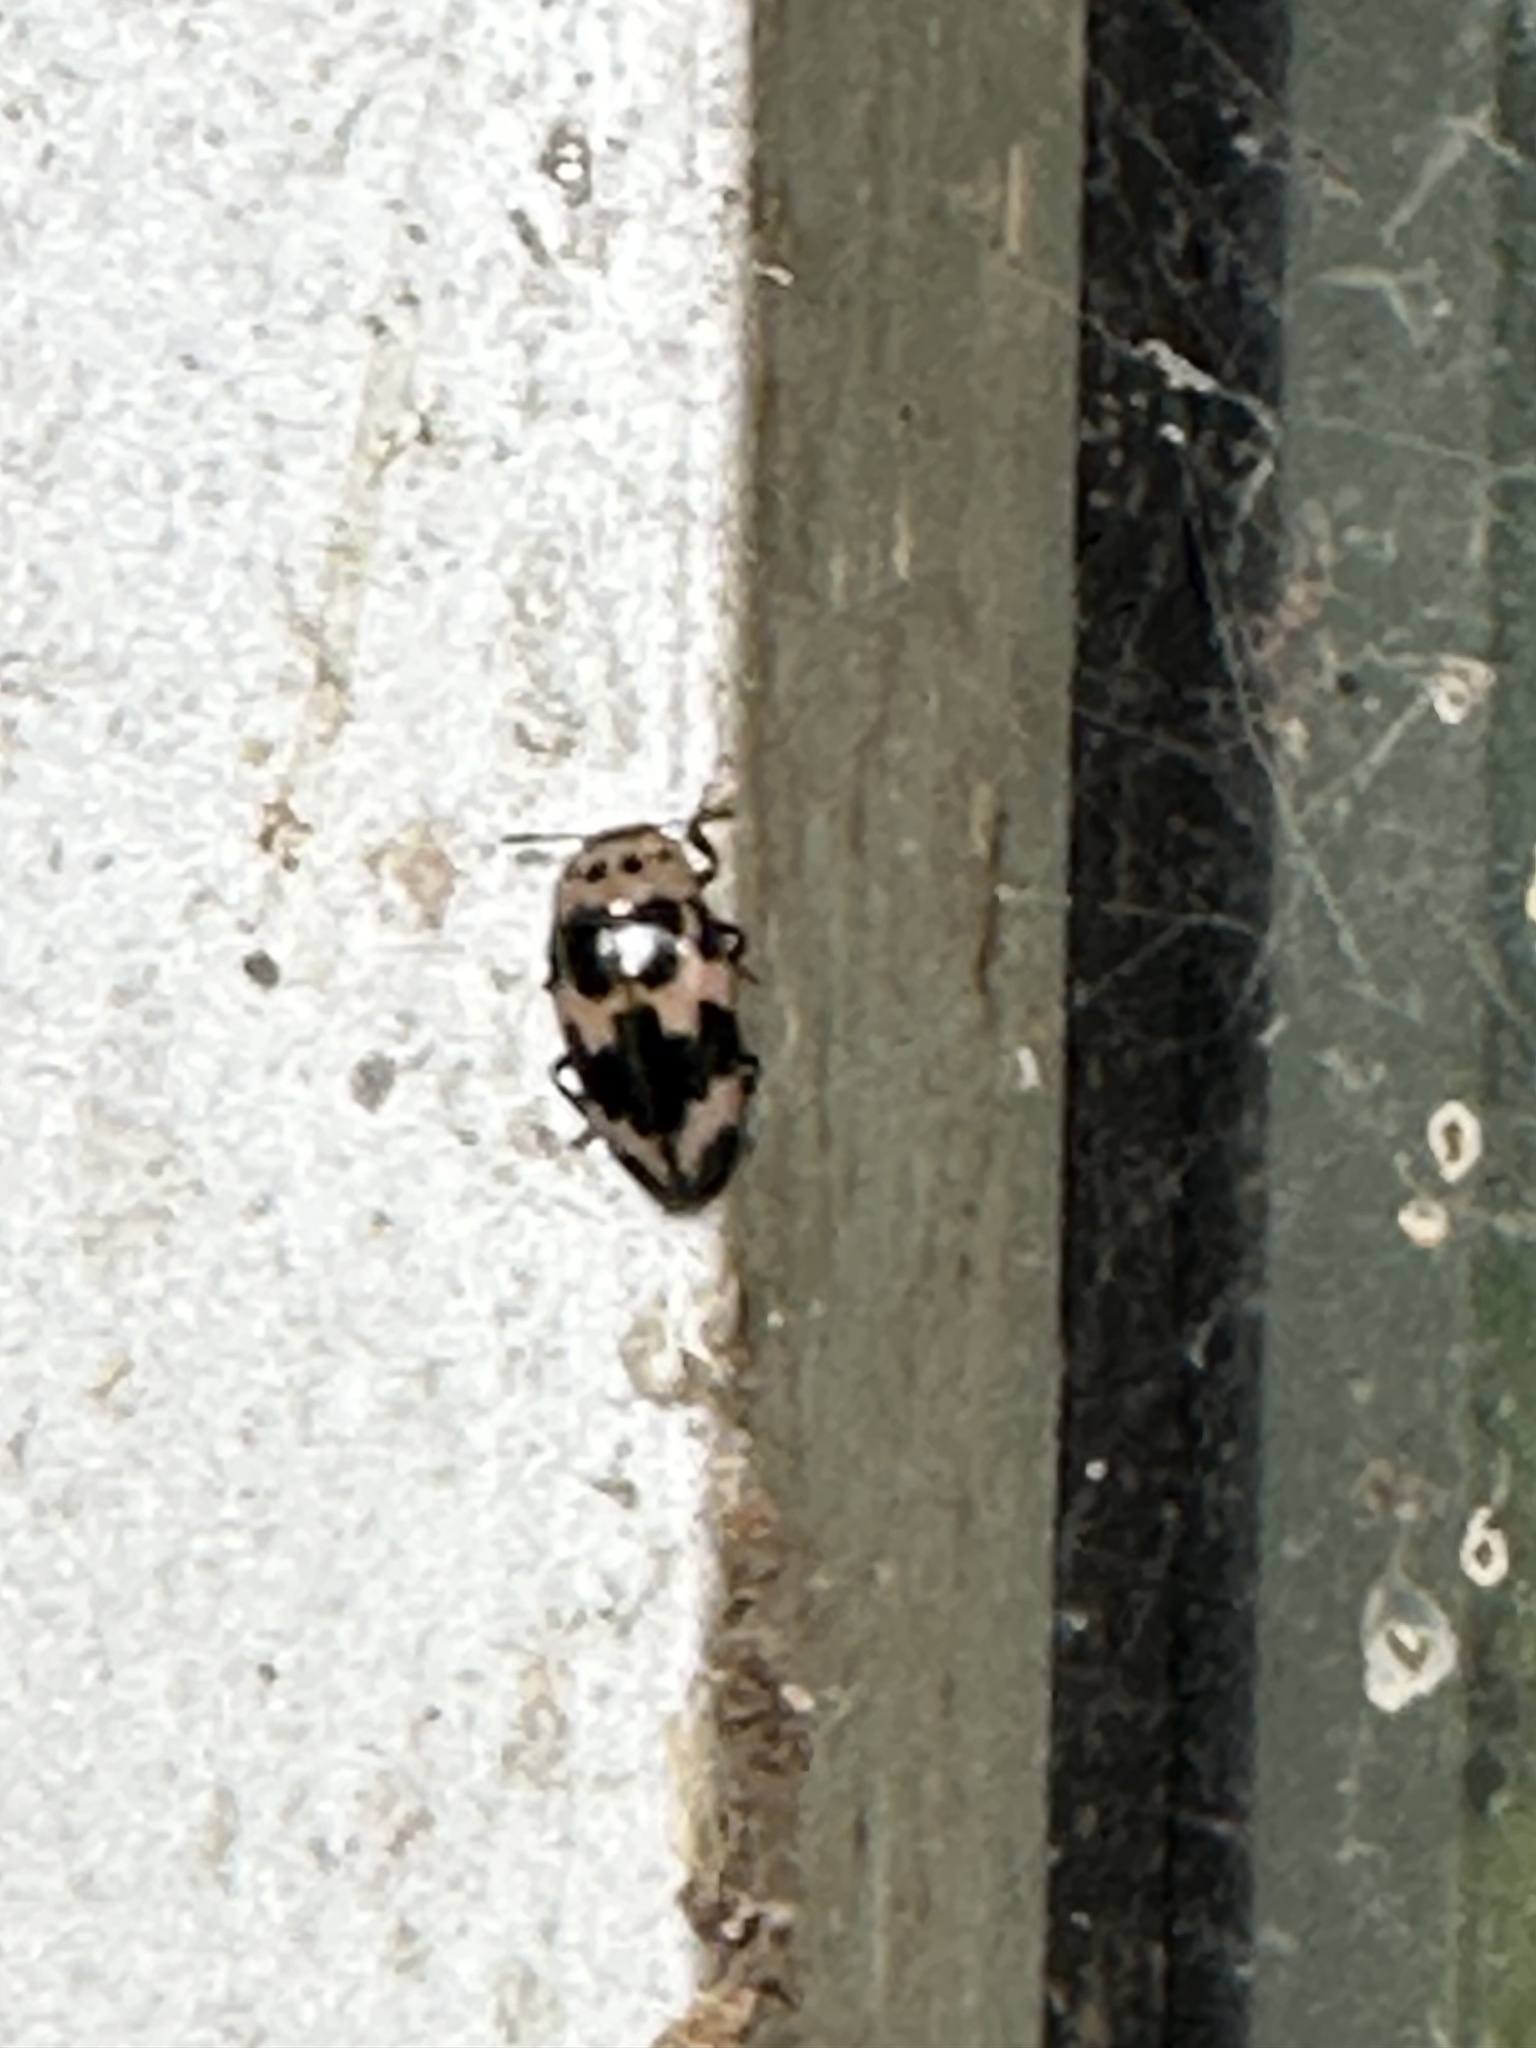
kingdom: Animalia
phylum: Arthropoda
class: Insecta
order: Coleoptera
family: Erotylidae
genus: Ischyrus
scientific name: Ischyrus quadripunctatus
